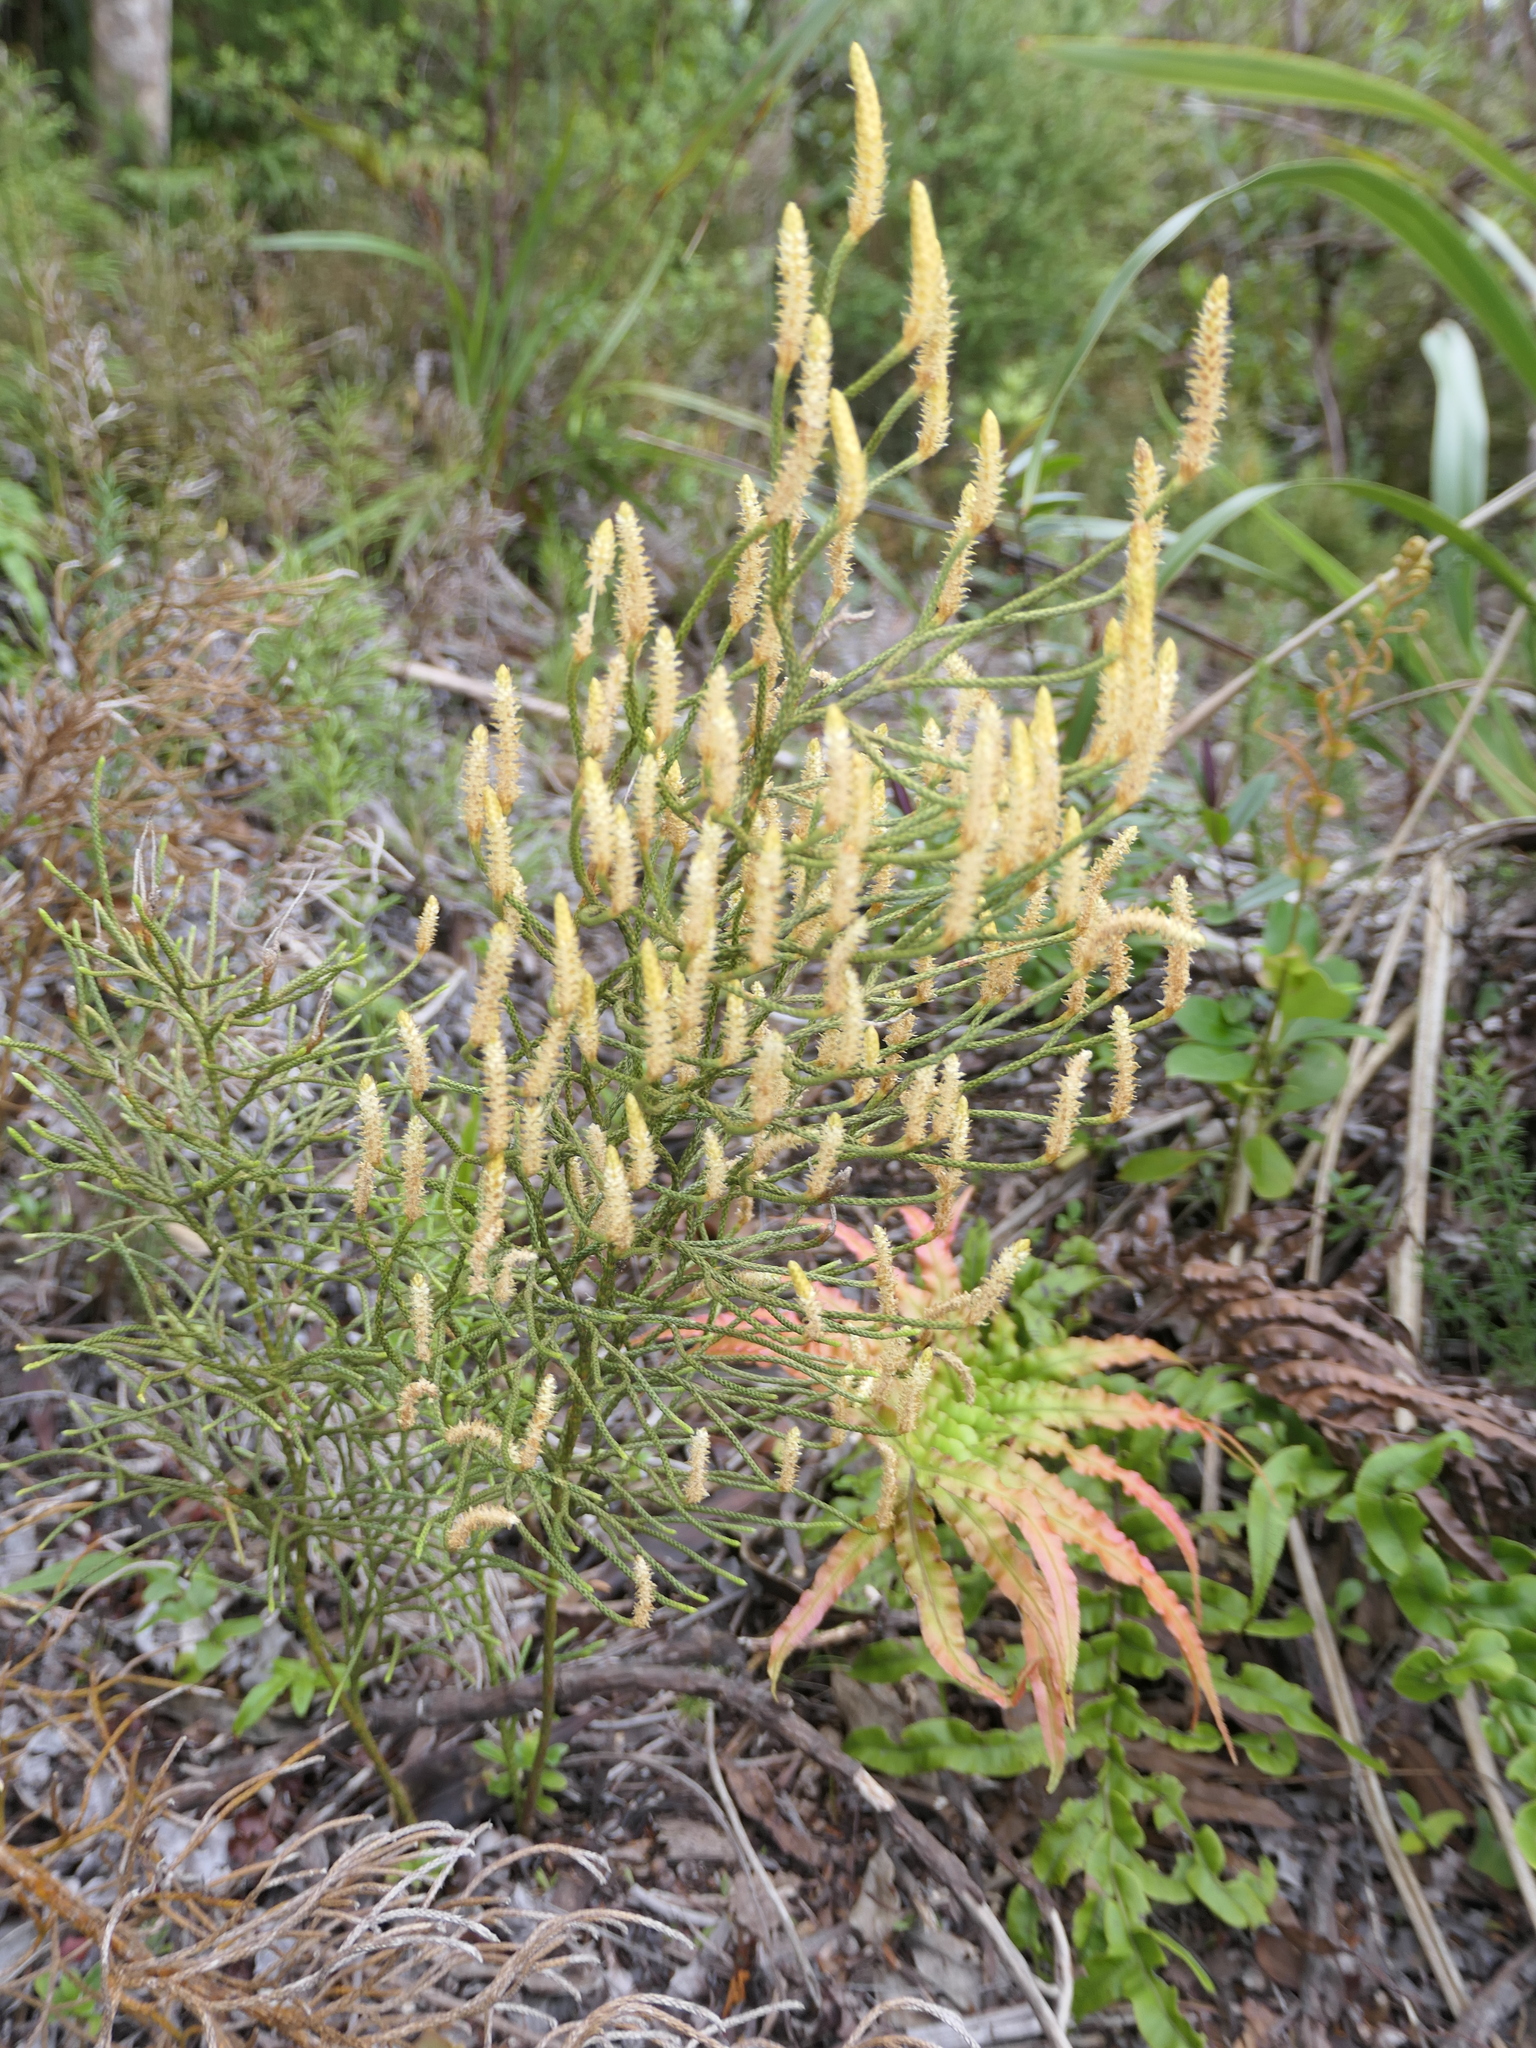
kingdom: Plantae
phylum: Tracheophyta
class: Lycopodiopsida
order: Lycopodiales
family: Lycopodiaceae
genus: Pseudolycopodium
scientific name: Pseudolycopodium densum
